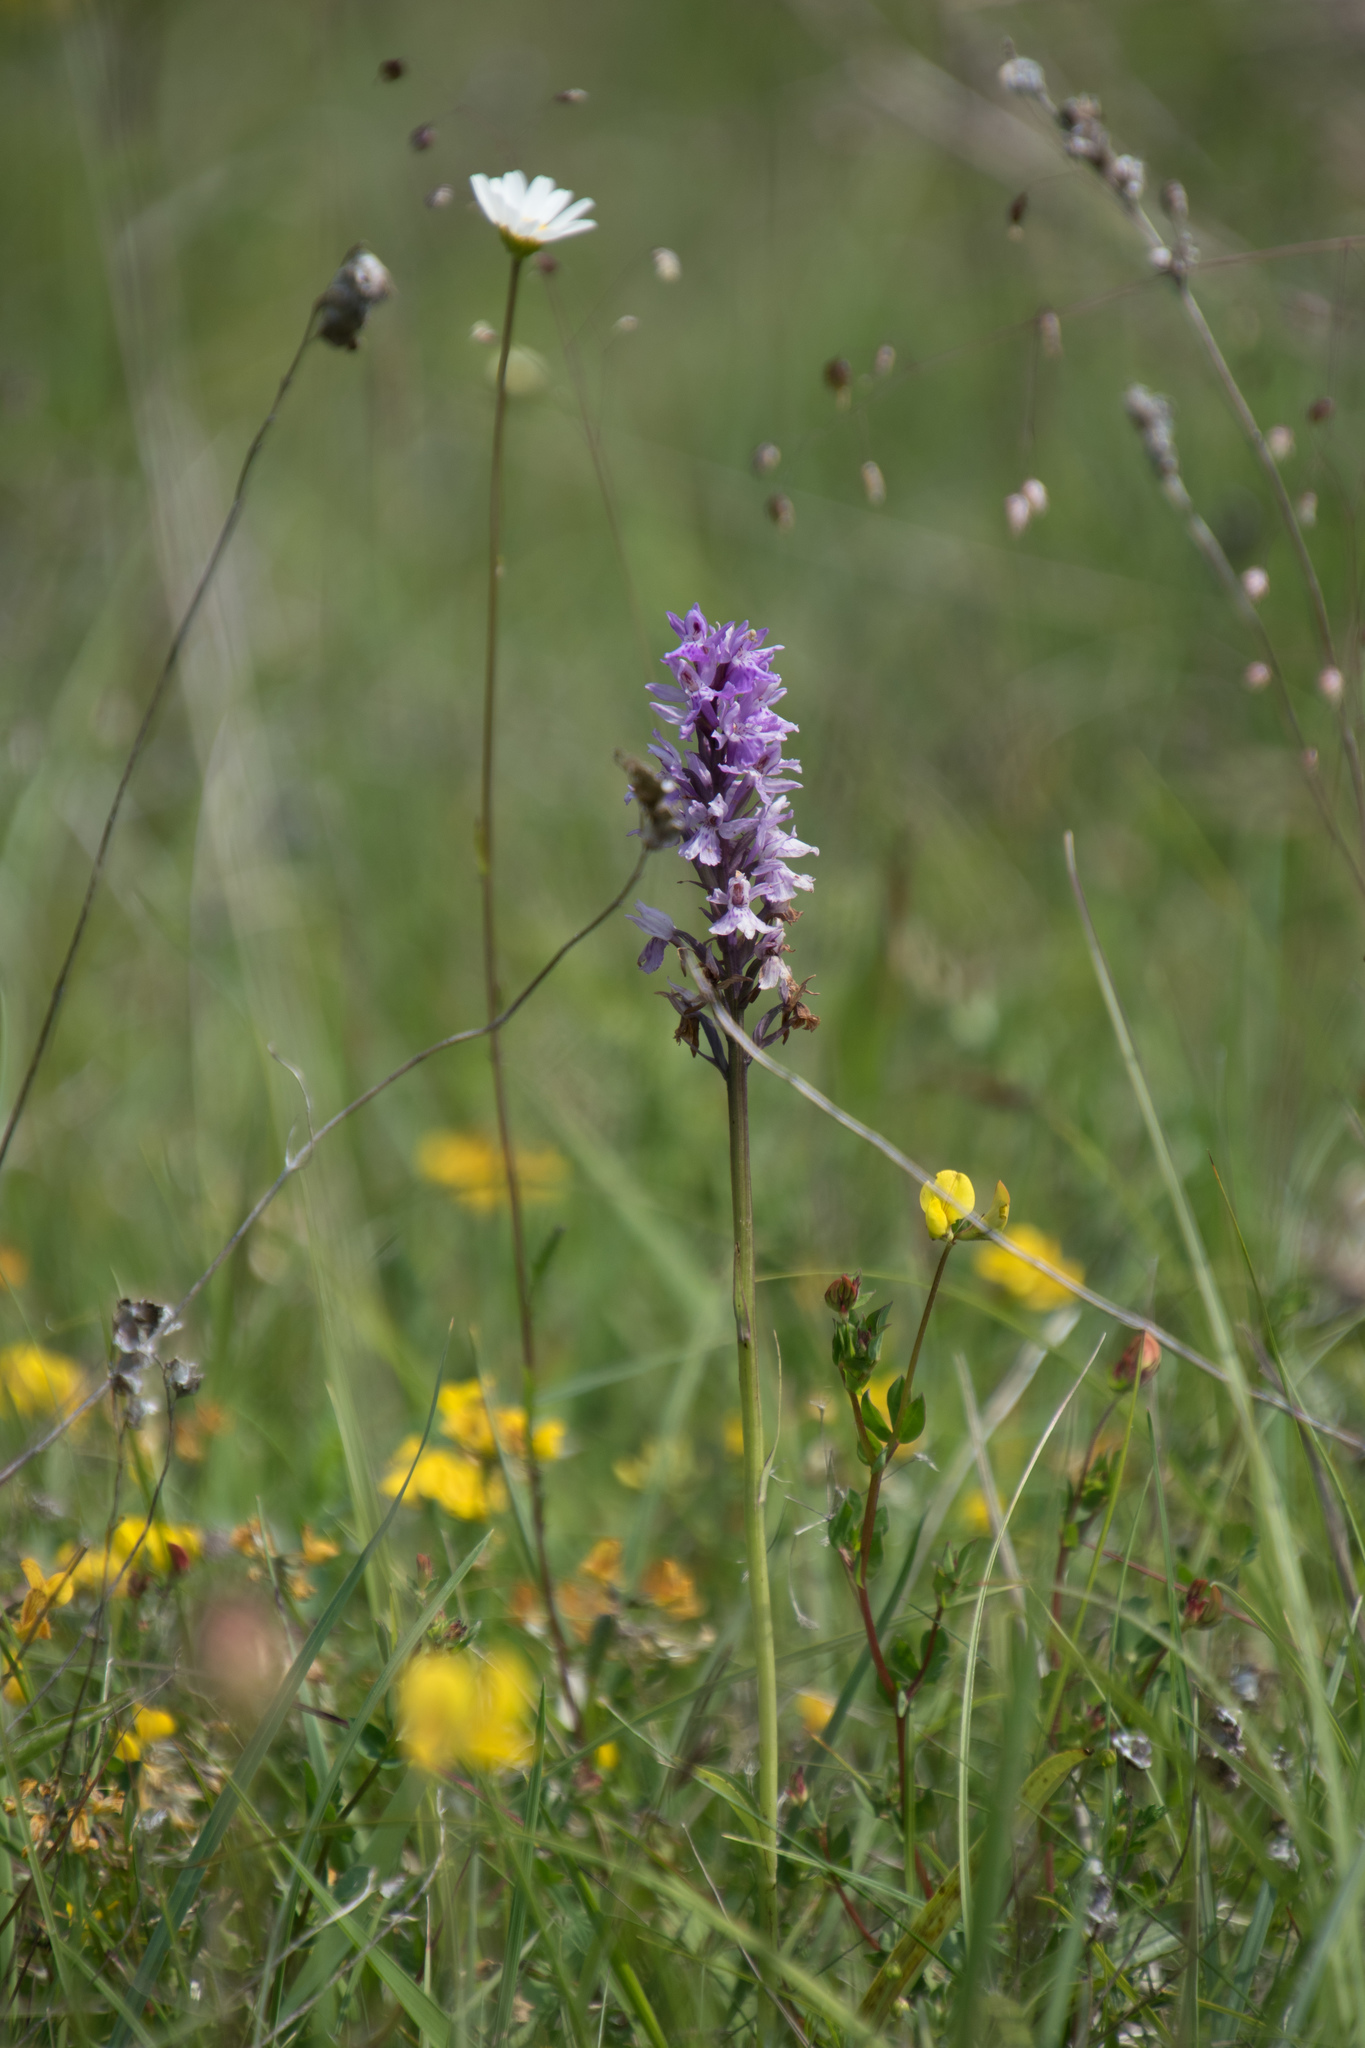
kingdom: Plantae
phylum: Tracheophyta
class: Liliopsida
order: Asparagales
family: Orchidaceae
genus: Dactylorhiza
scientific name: Dactylorhiza maculata
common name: Heath spotted-orchid
